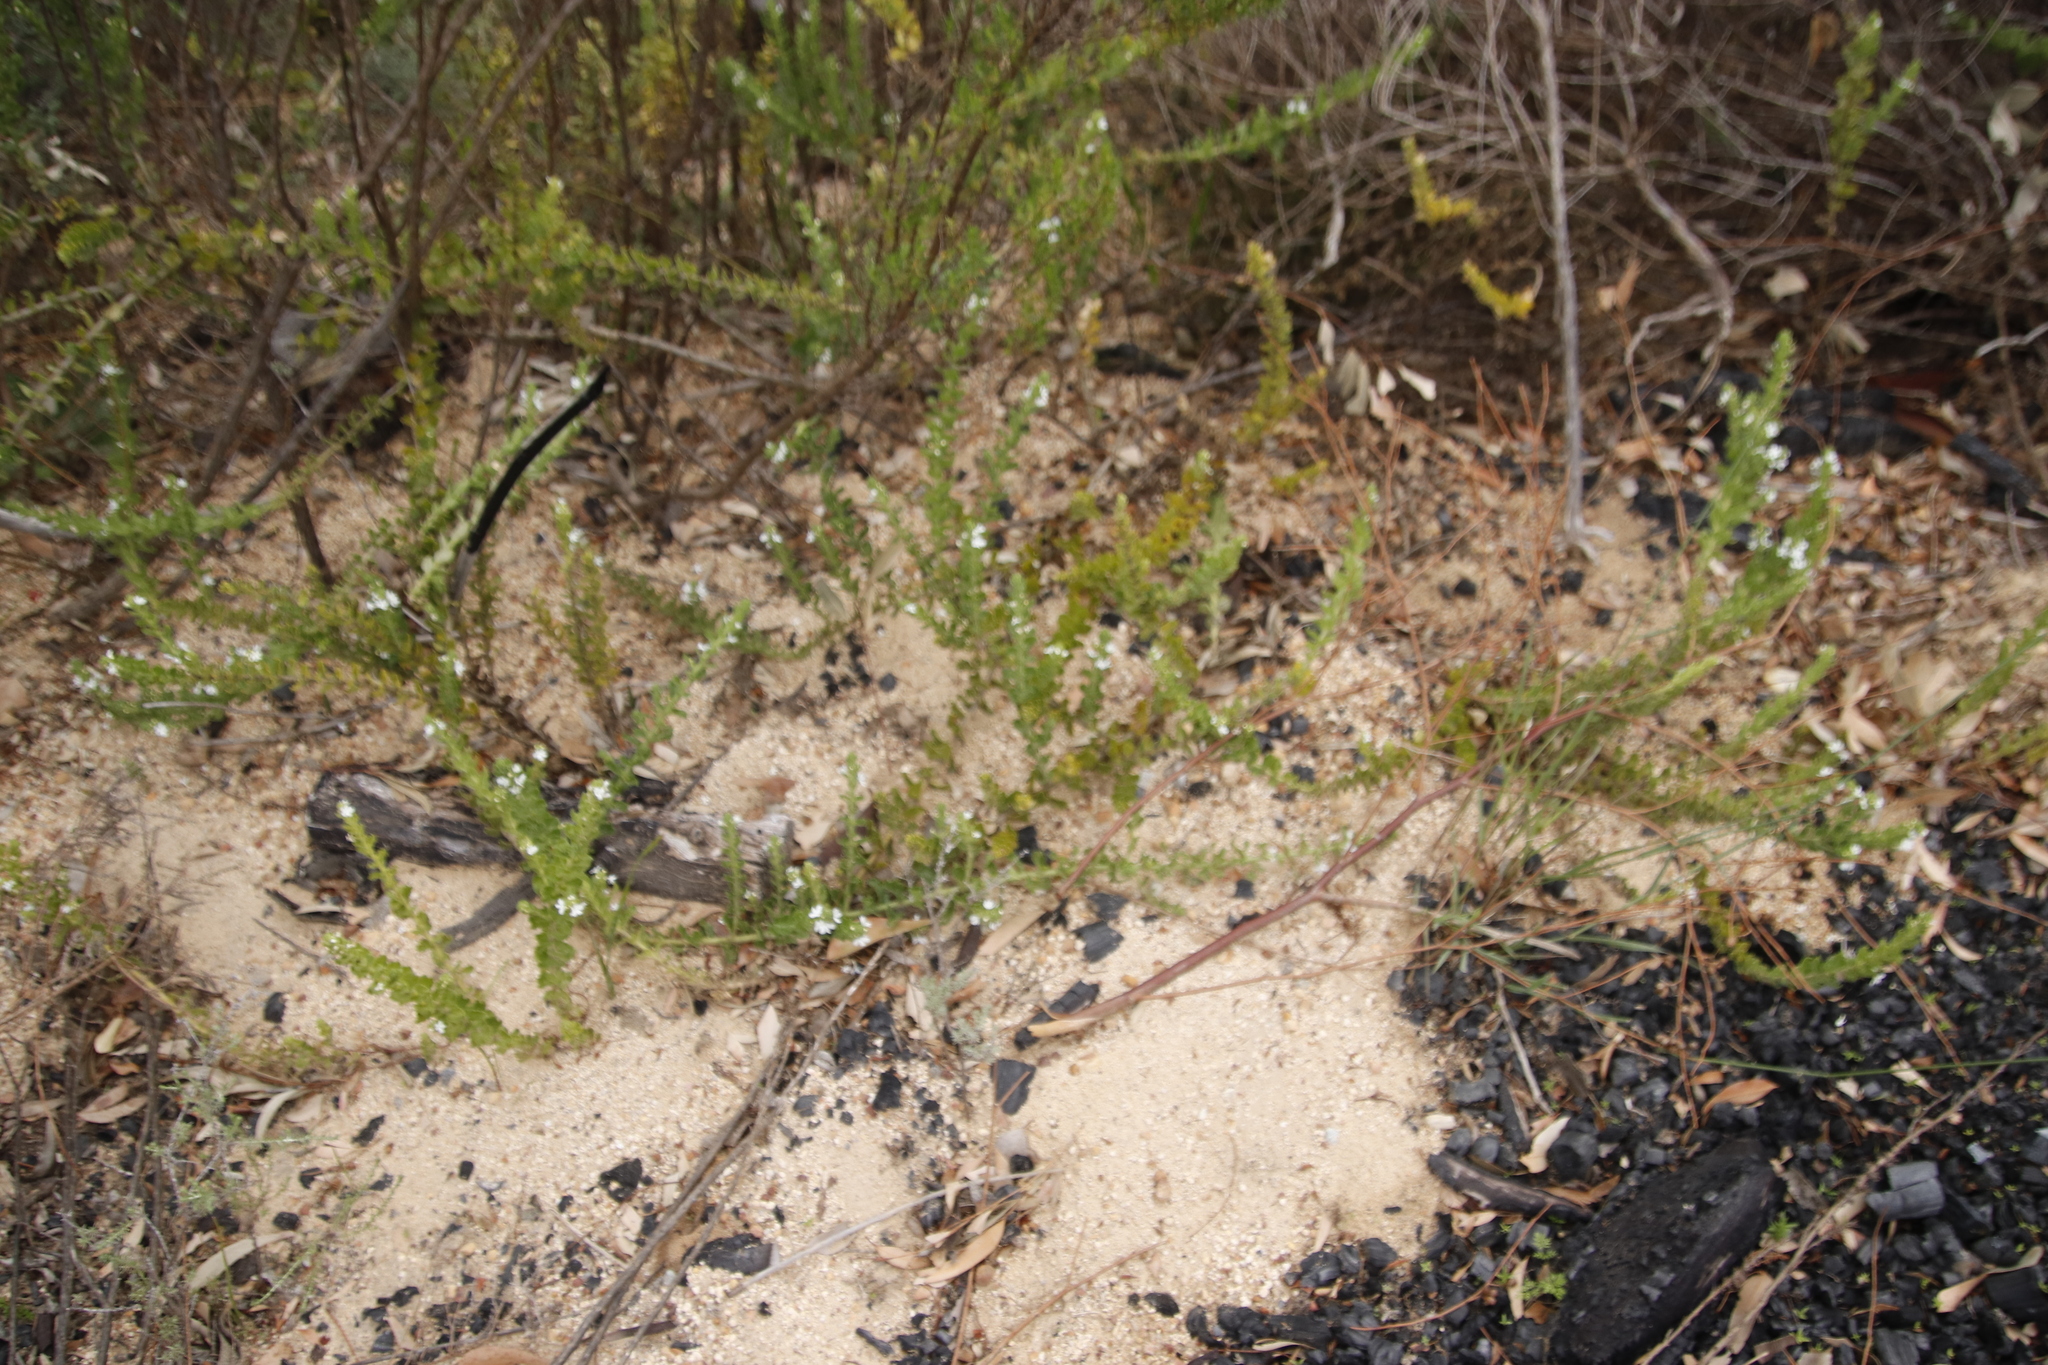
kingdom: Plantae
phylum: Tracheophyta
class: Magnoliopsida
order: Lamiales
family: Scrophulariaceae
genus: Oftia
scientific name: Oftia africana
